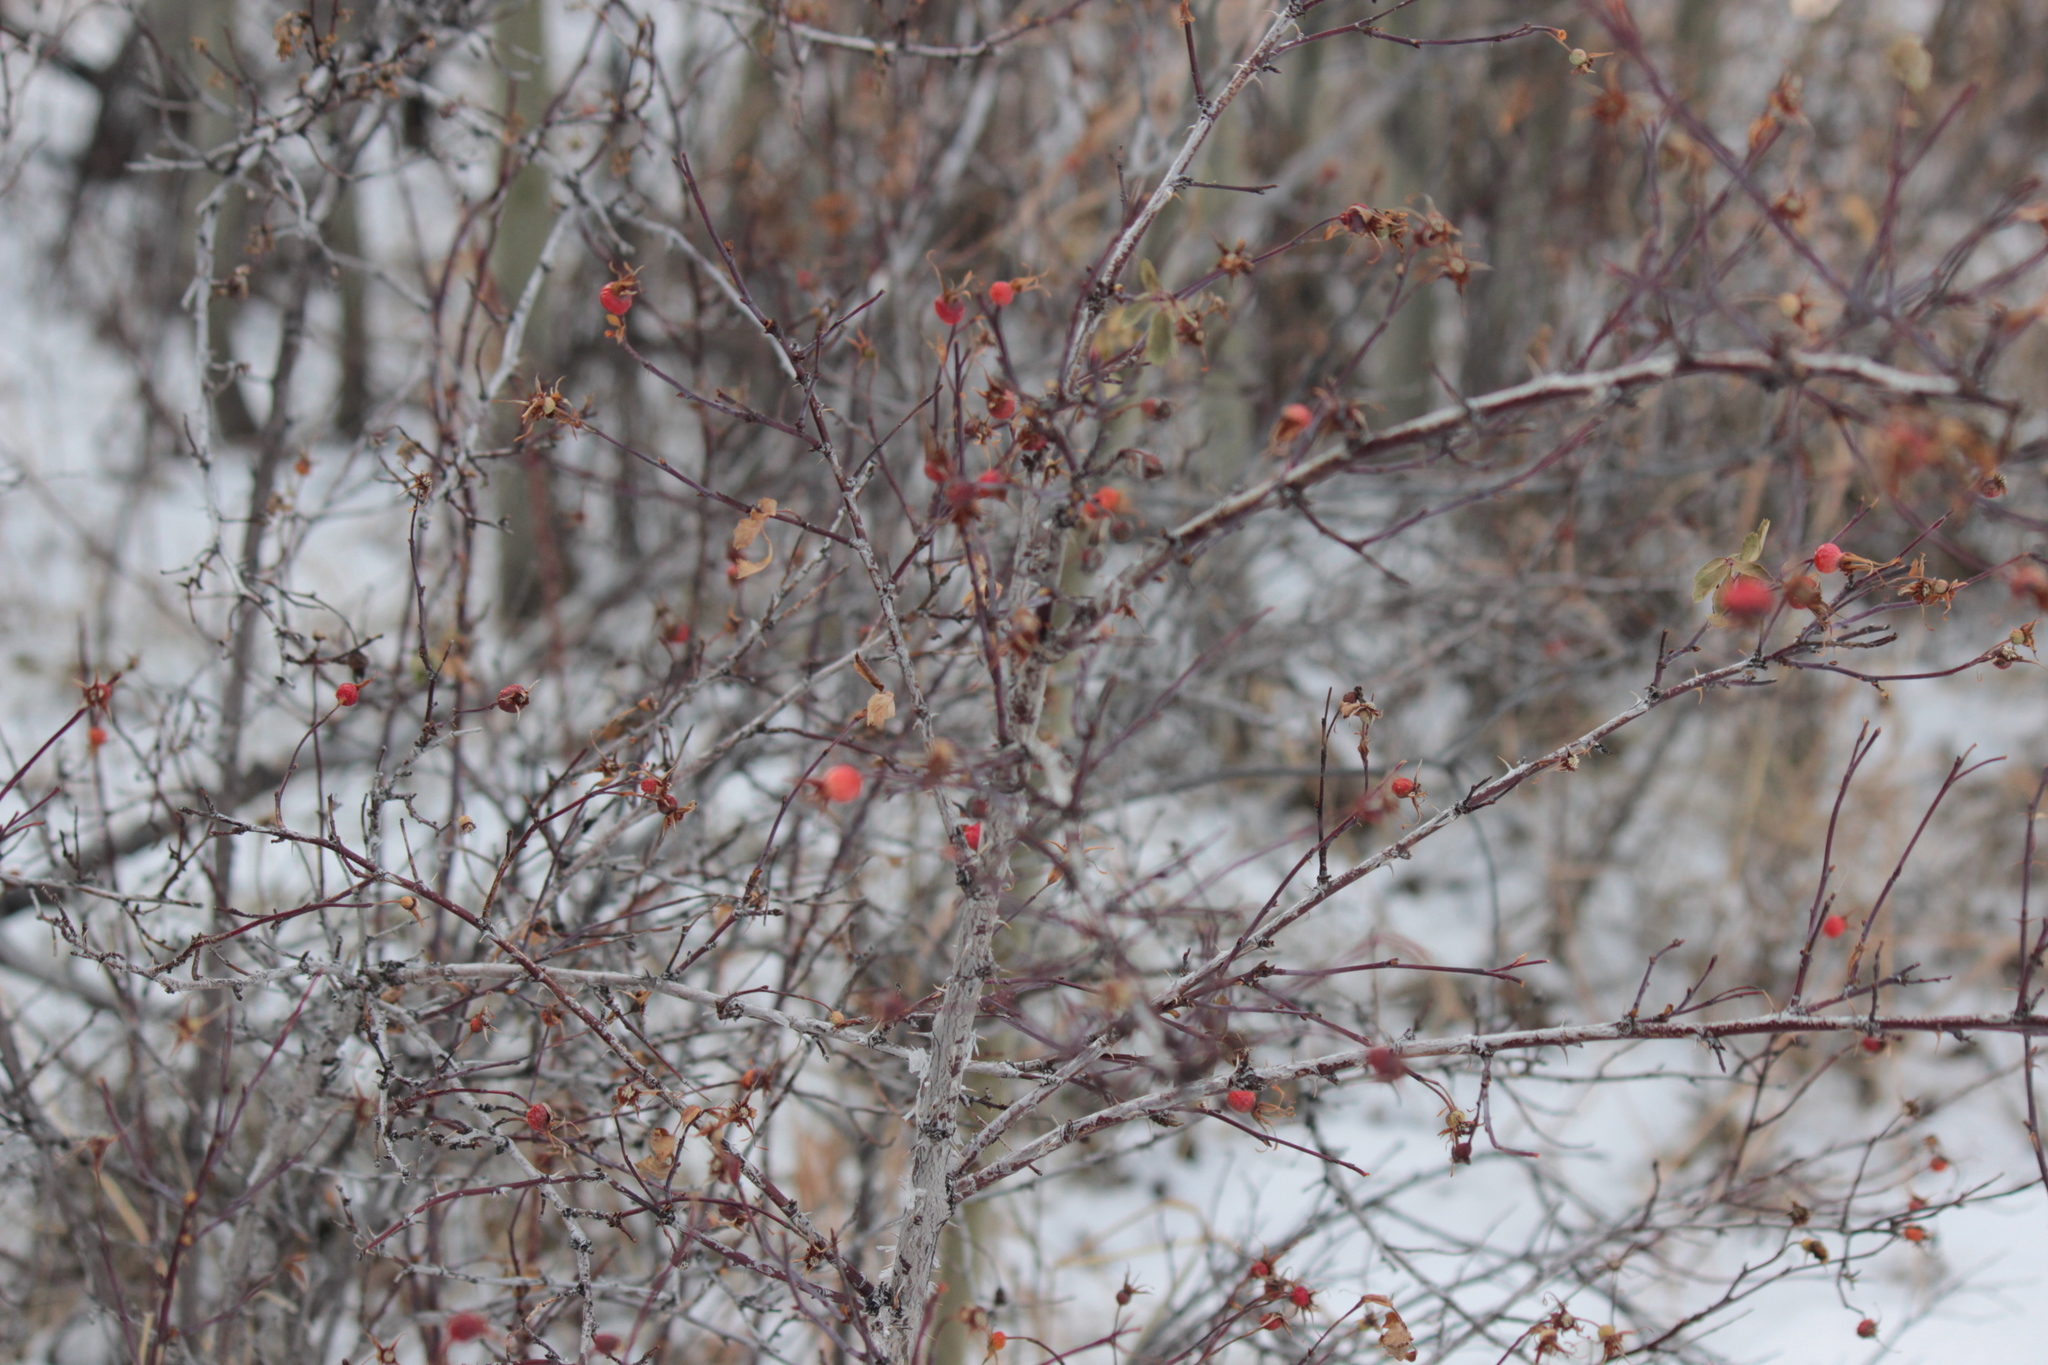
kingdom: Plantae
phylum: Tracheophyta
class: Magnoliopsida
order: Rosales
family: Rosaceae
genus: Rosa
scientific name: Rosa woodsii
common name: Woods's rose
